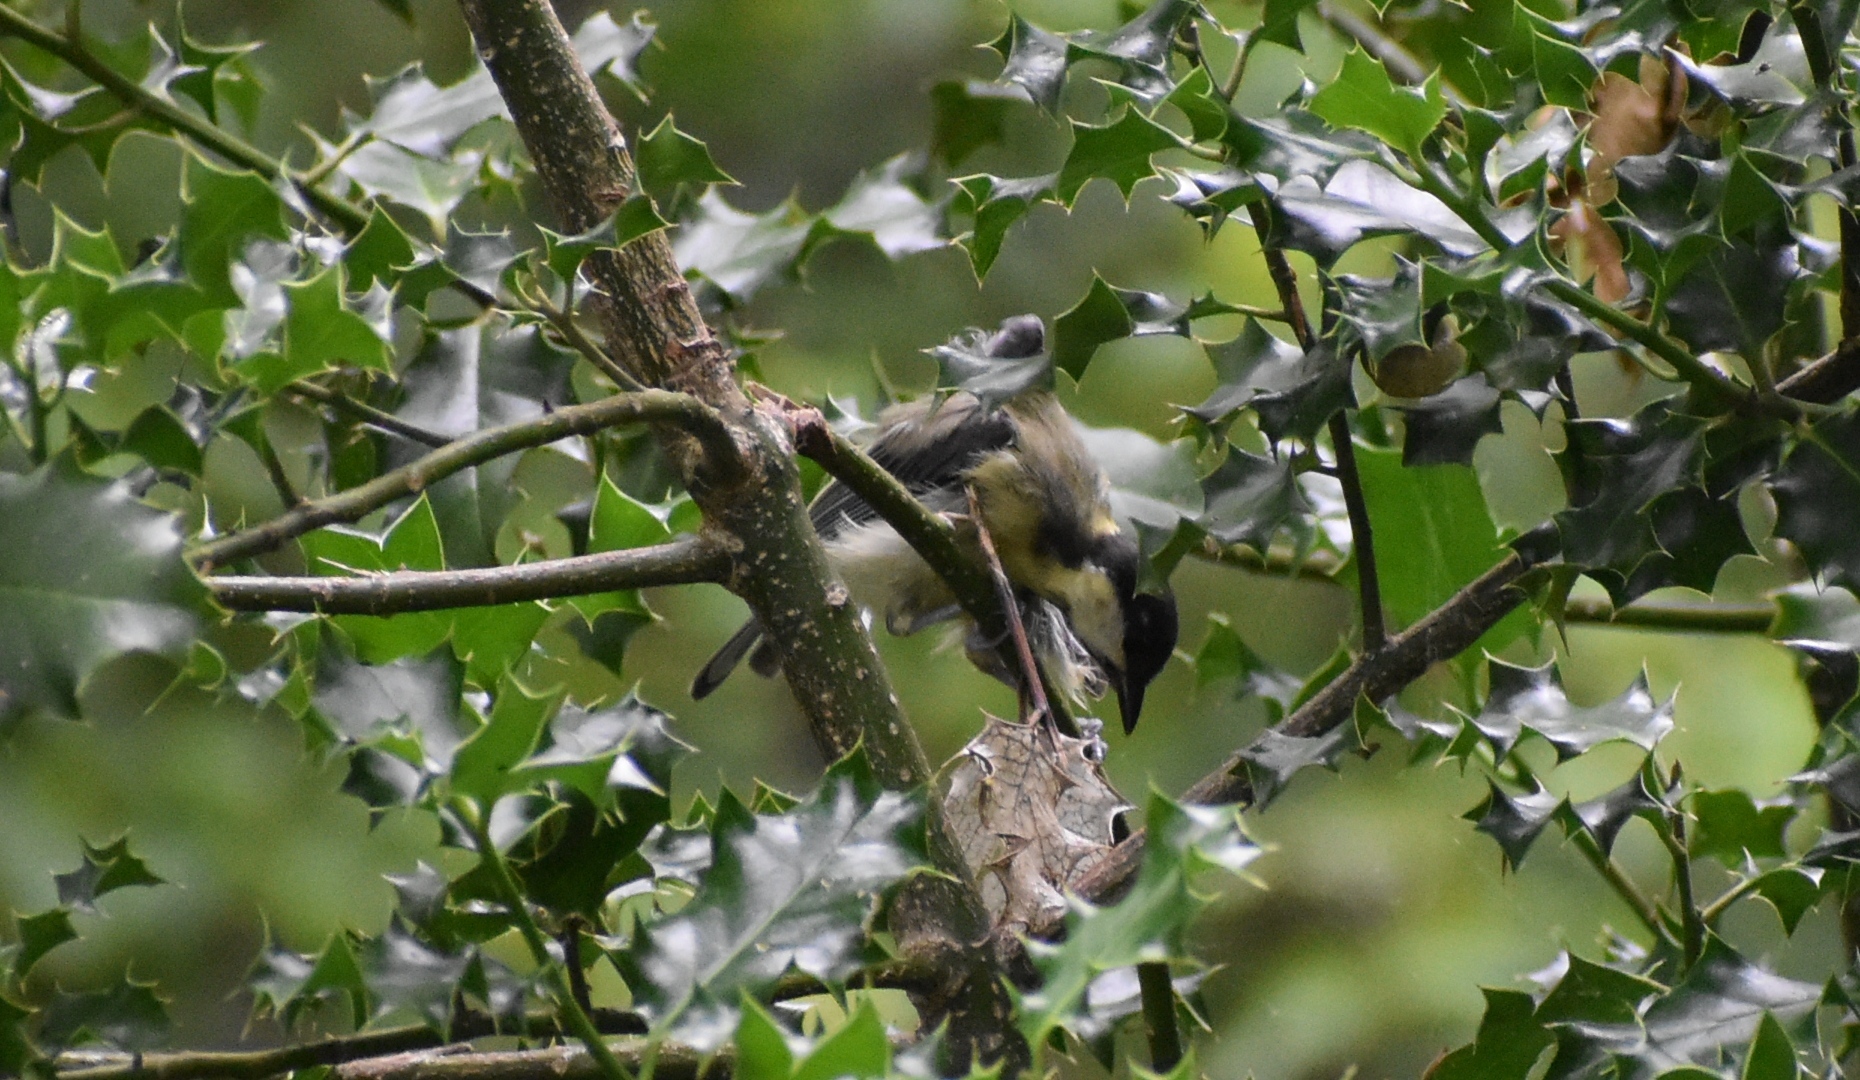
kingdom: Animalia
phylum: Chordata
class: Aves
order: Passeriformes
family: Paridae
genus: Parus
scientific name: Parus major
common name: Great tit
